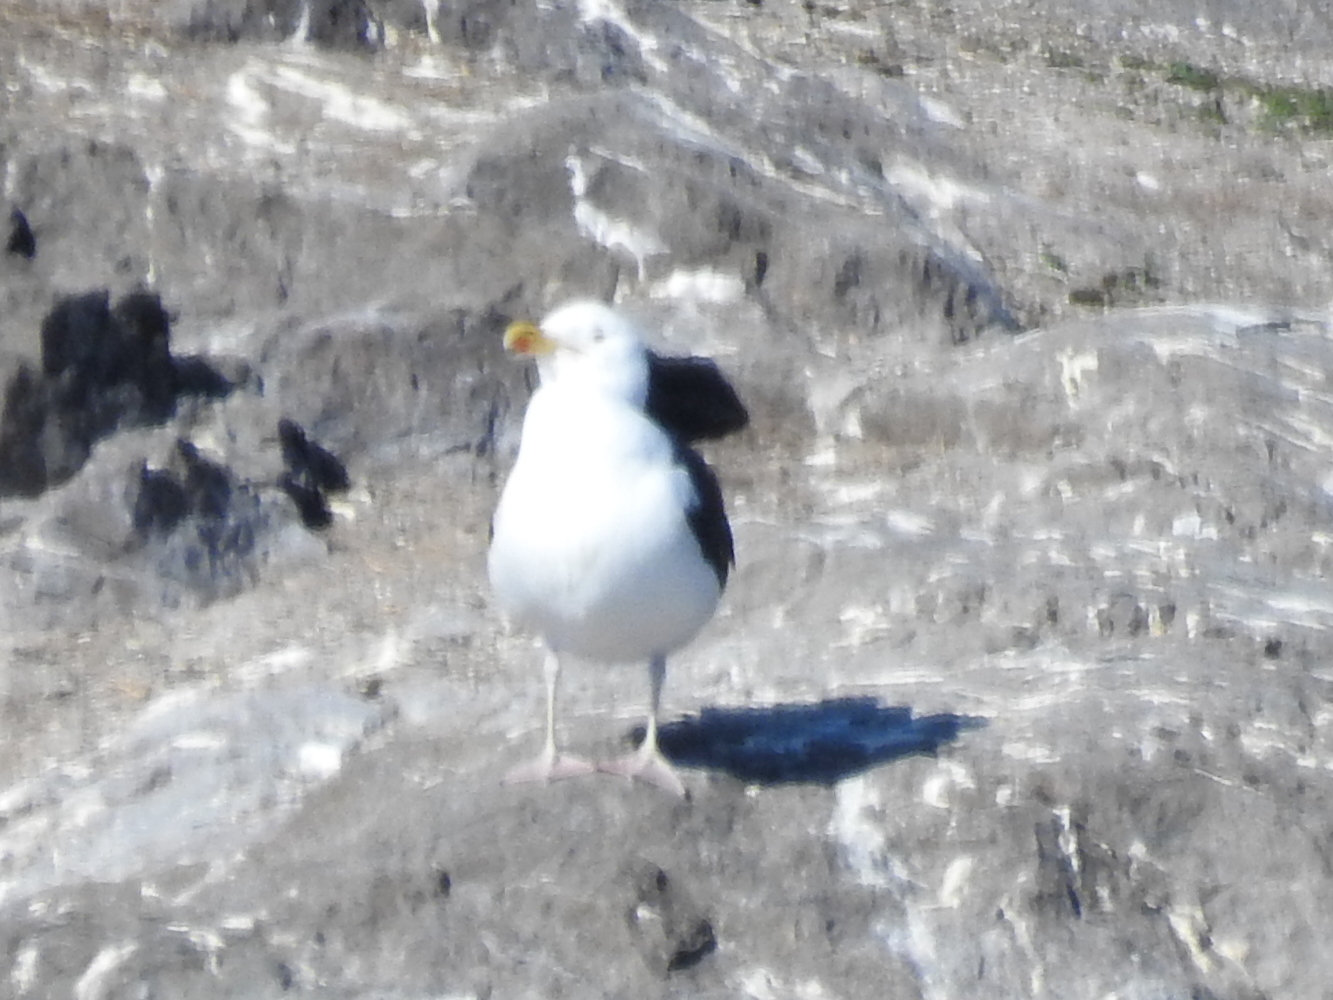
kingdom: Animalia
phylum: Chordata
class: Aves
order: Charadriiformes
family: Laridae
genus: Larus
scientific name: Larus marinus
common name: Great black-backed gull
